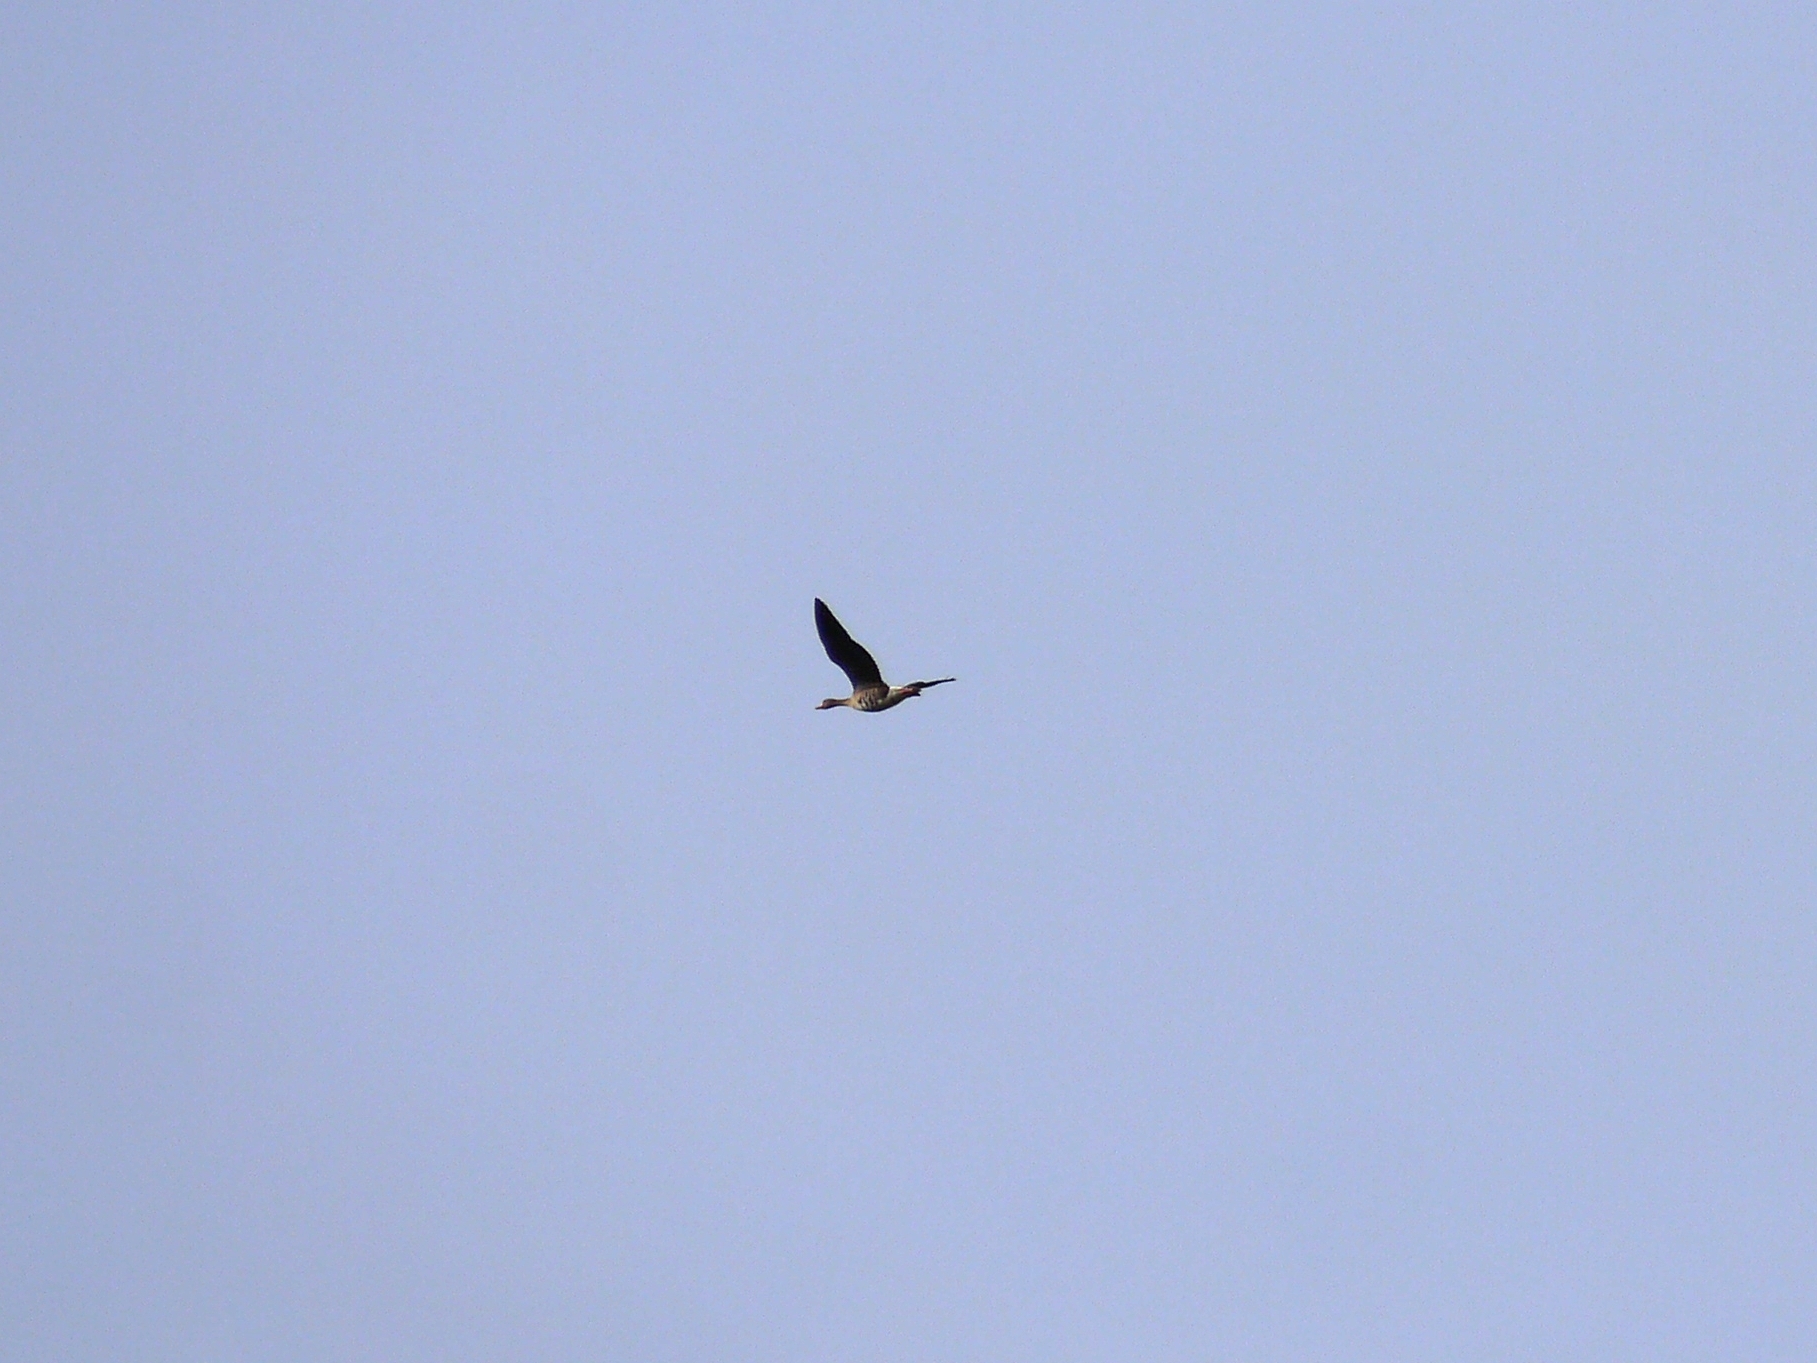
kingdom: Animalia
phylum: Chordata
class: Aves
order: Anseriformes
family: Anatidae
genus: Anser
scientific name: Anser albifrons
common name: Greater white-fronted goose
